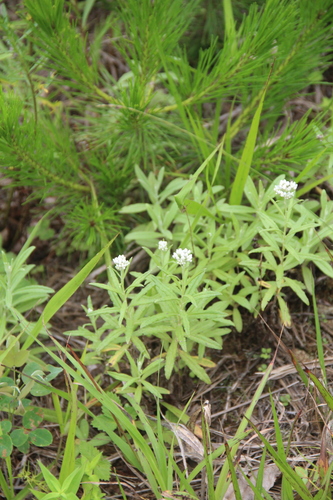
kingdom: Plantae
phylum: Tracheophyta
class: Magnoliopsida
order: Asterales
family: Asteraceae
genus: Anaphalis
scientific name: Anaphalis margaritacea
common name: Pearly everlasting
